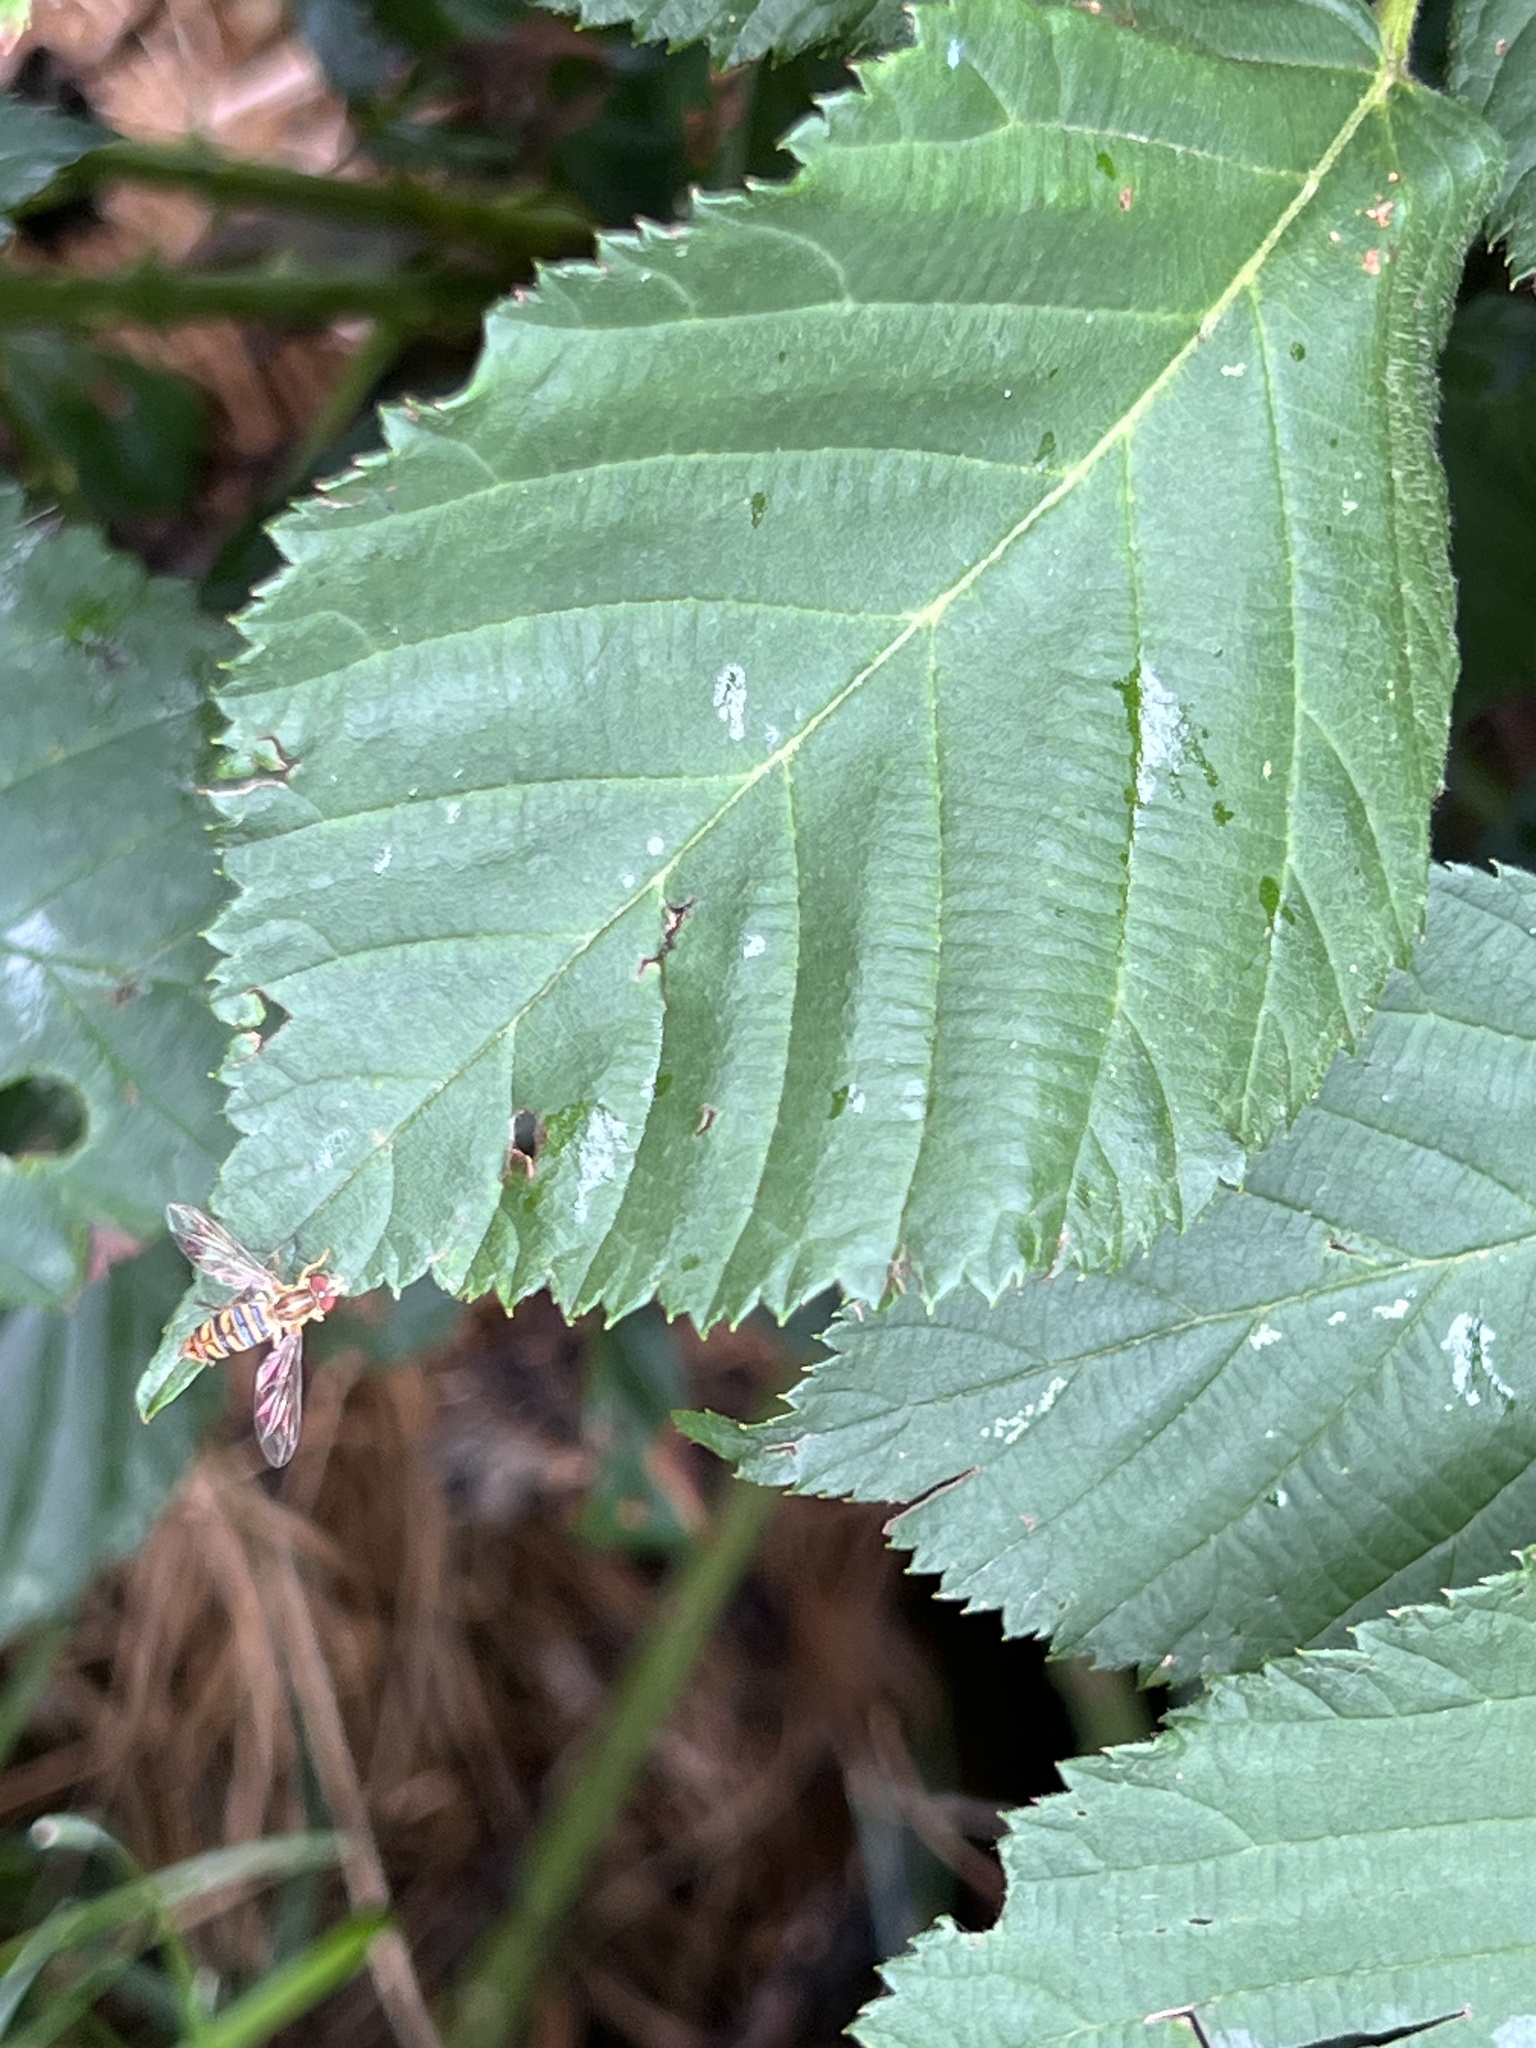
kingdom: Animalia
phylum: Arthropoda
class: Insecta
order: Diptera
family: Syrphidae
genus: Toxomerus
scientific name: Toxomerus politus
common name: Maize calligrapher
